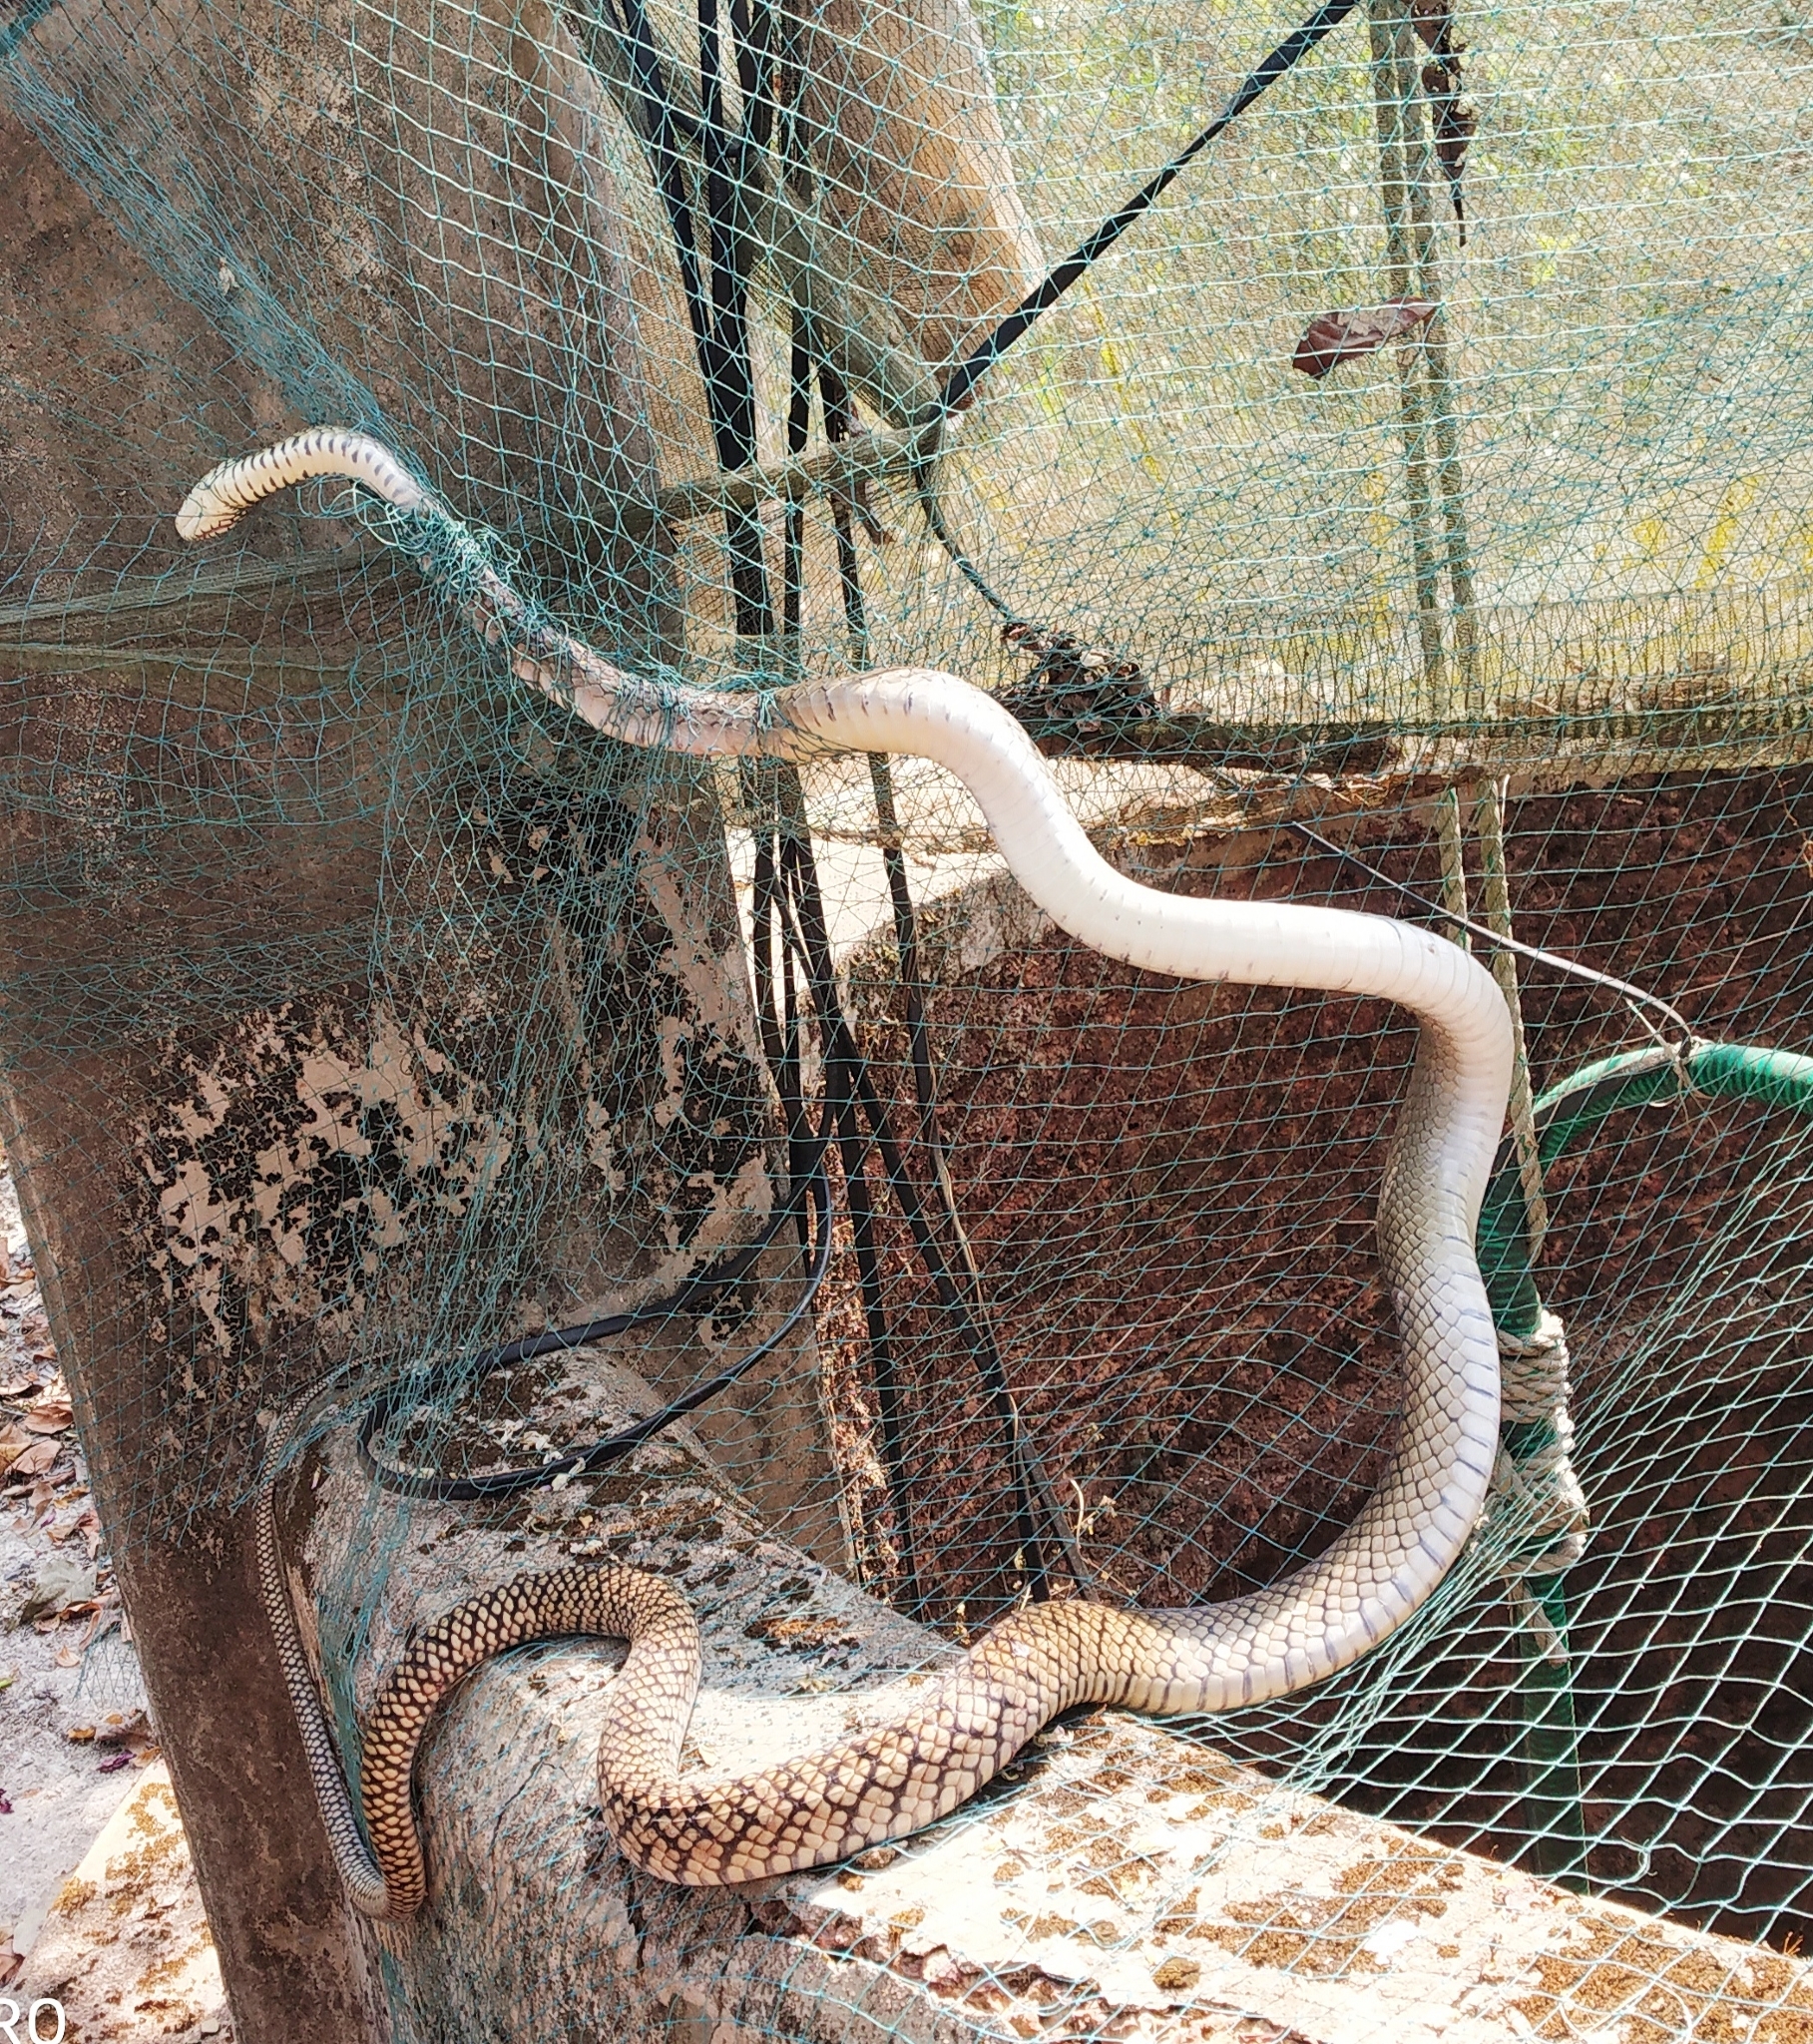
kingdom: Animalia
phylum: Chordata
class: Squamata
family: Colubridae
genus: Ptyas
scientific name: Ptyas mucosa
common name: Oriental ratsnake
